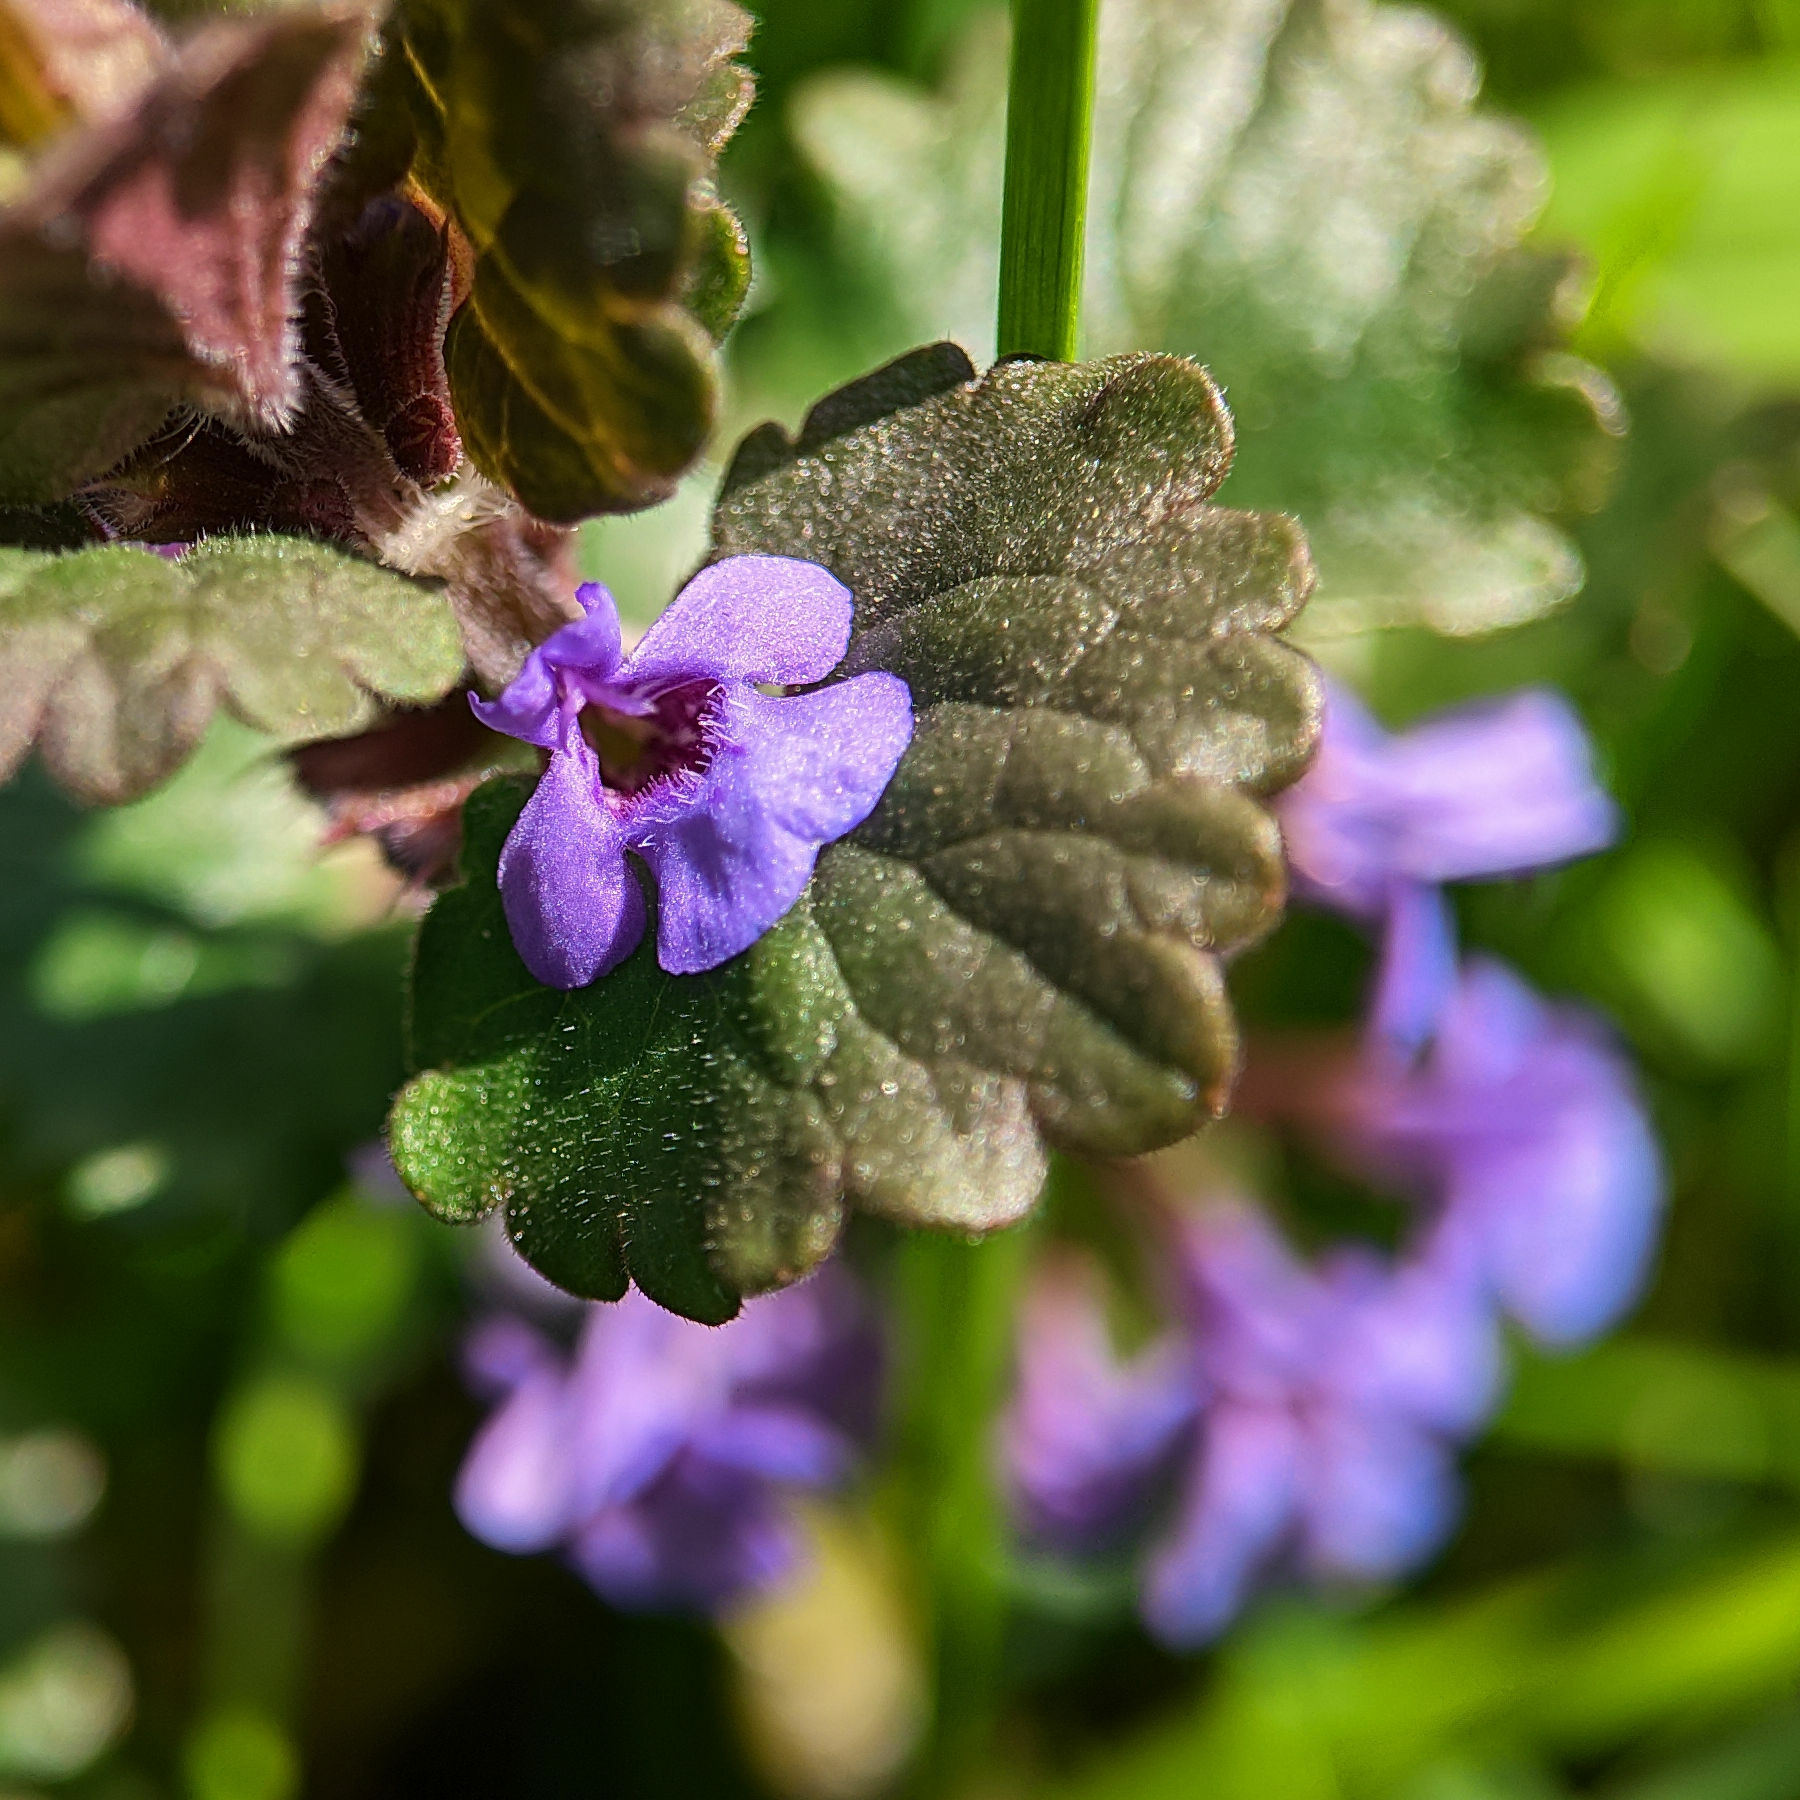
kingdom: Plantae
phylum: Tracheophyta
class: Magnoliopsida
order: Lamiales
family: Lamiaceae
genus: Glechoma
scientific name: Glechoma hederacea
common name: Ground ivy
